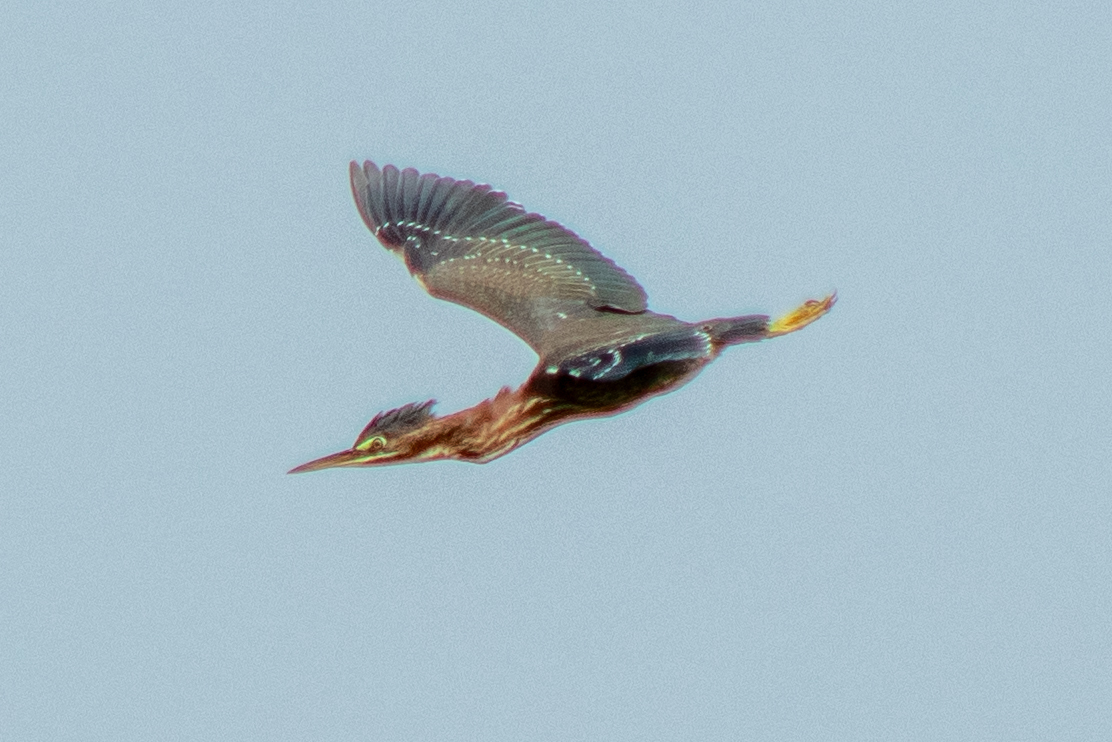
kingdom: Animalia
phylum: Chordata
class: Aves
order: Pelecaniformes
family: Ardeidae
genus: Butorides
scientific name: Butorides virescens
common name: Green heron
